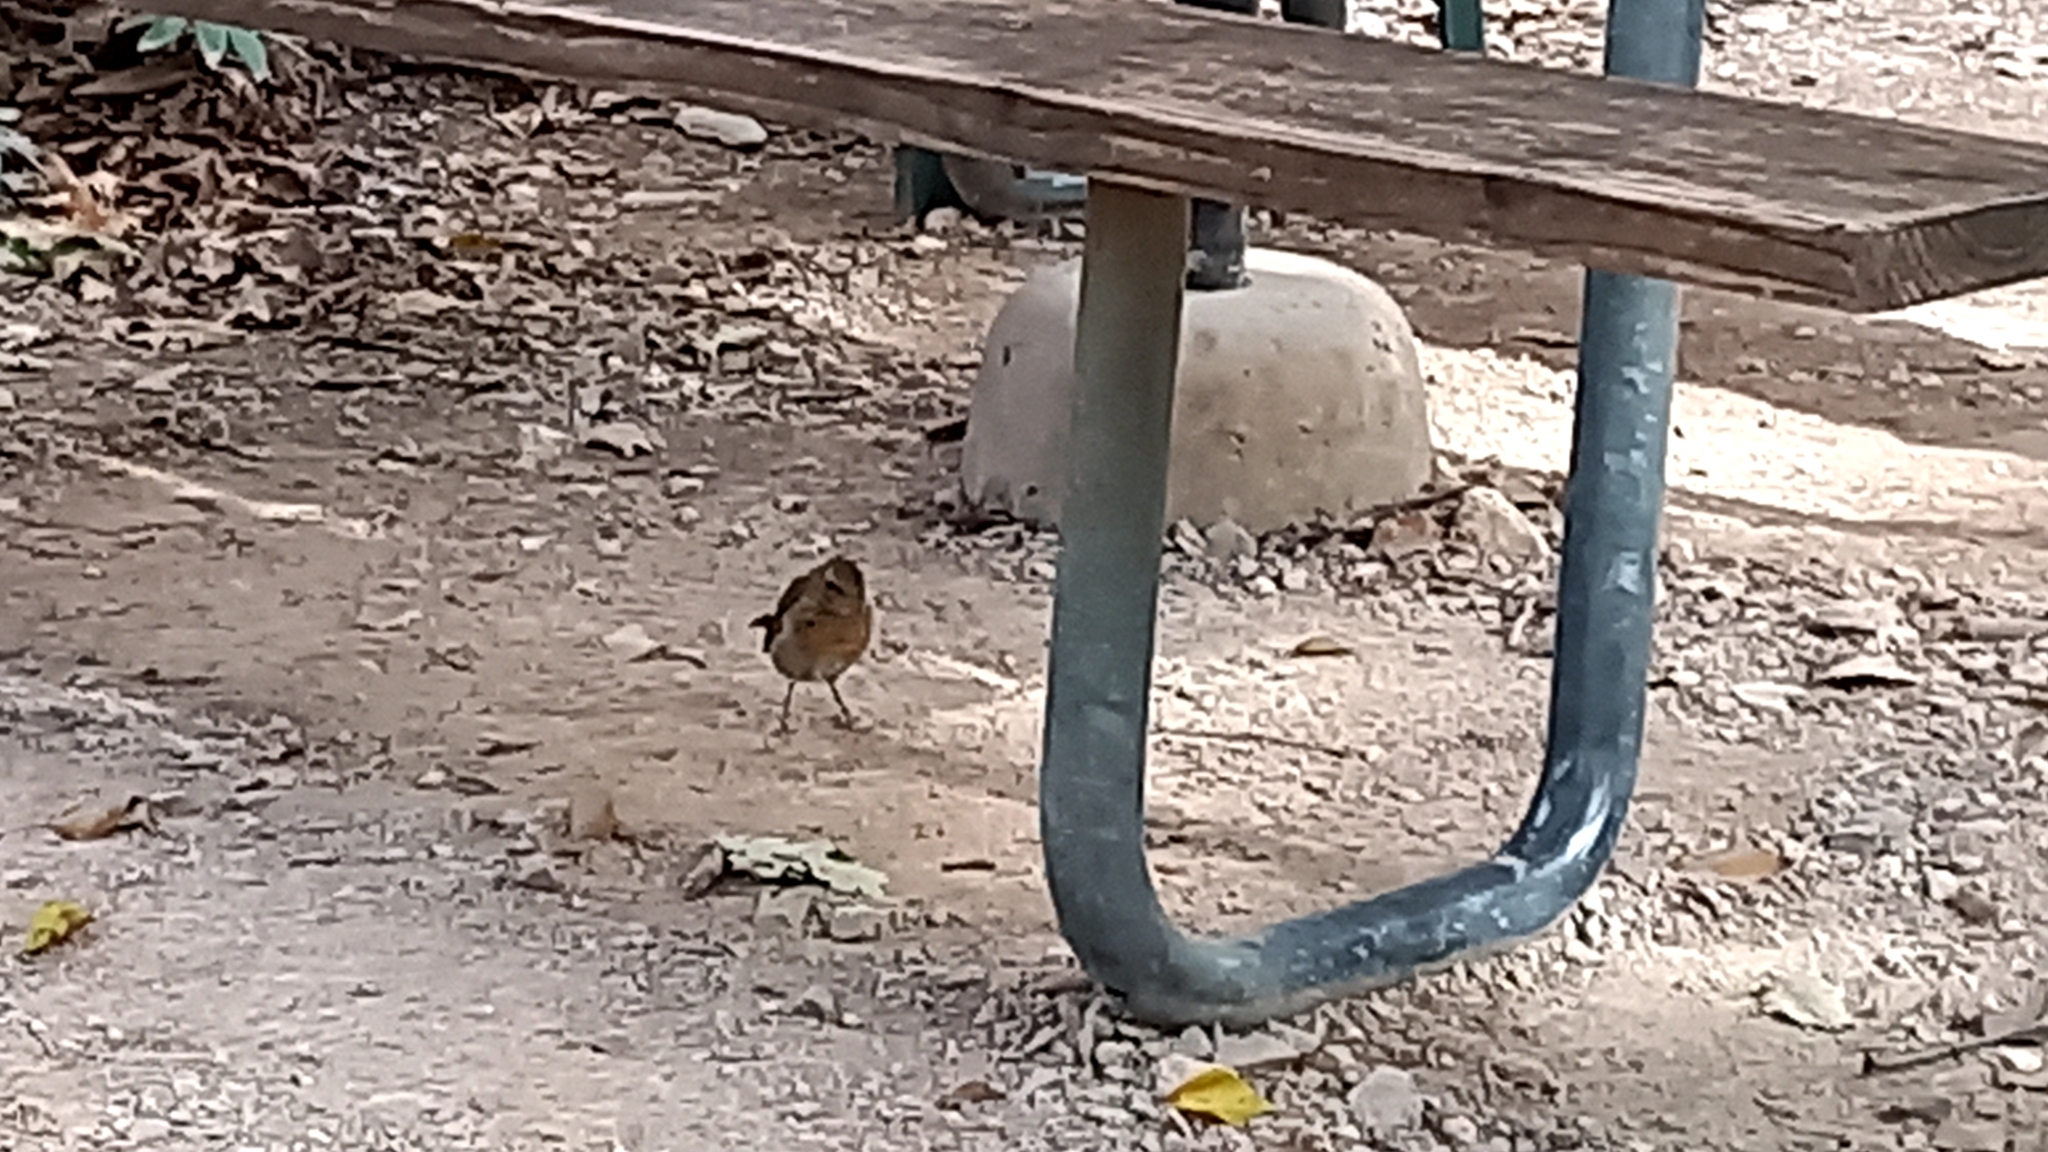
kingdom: Animalia
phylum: Chordata
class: Aves
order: Passeriformes
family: Muscicapidae
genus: Erithacus
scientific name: Erithacus rubecula
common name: European robin
